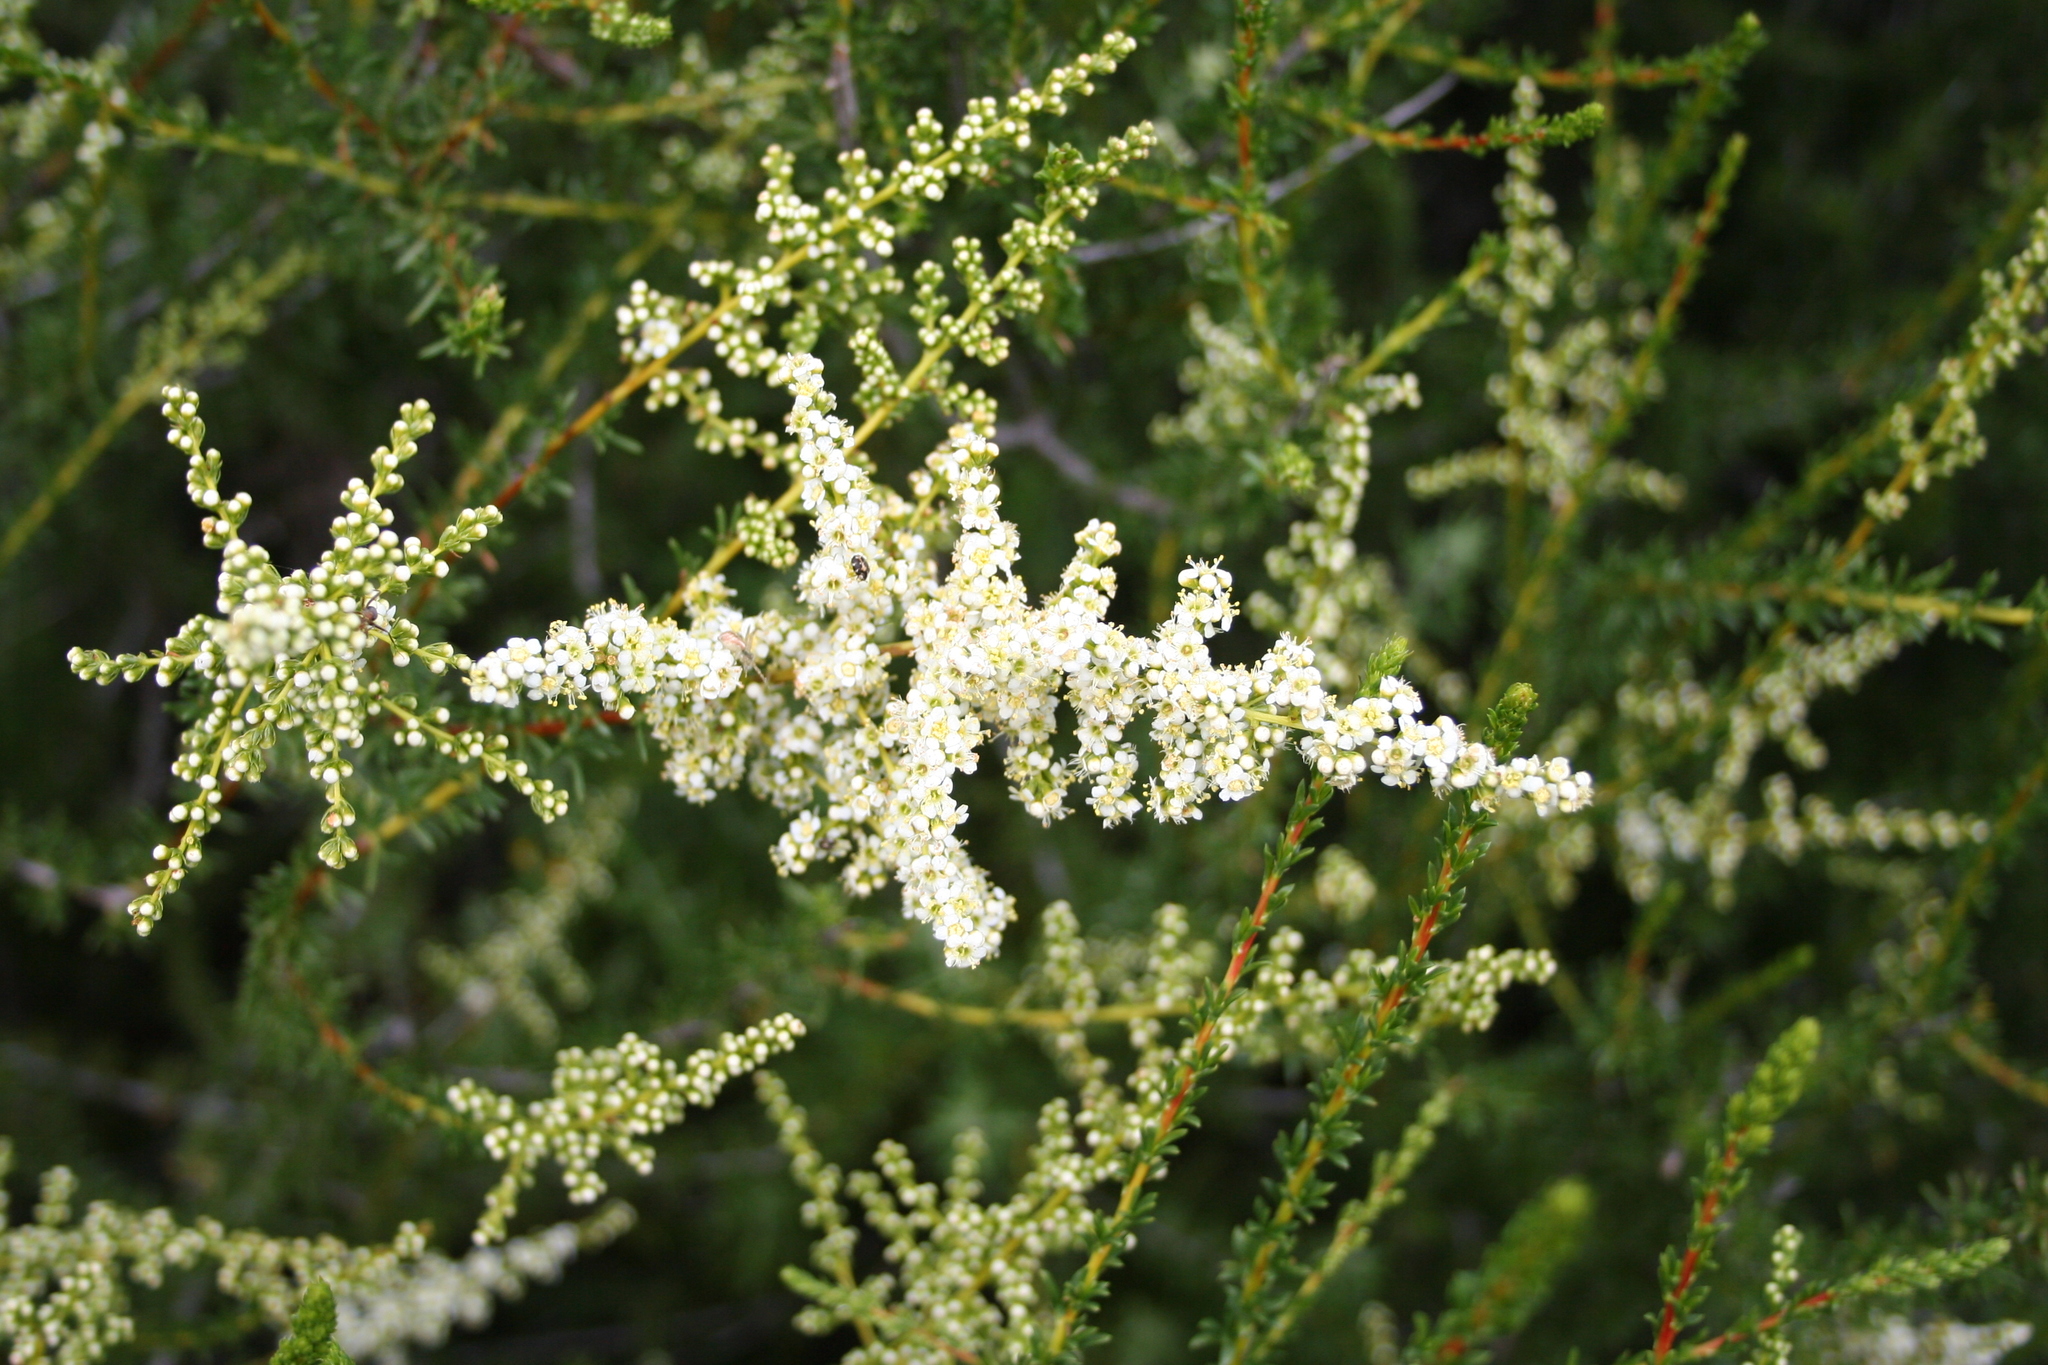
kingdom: Plantae
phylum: Tracheophyta
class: Magnoliopsida
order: Rosales
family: Rosaceae
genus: Adenostoma
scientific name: Adenostoma fasciculatum
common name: Chamise
